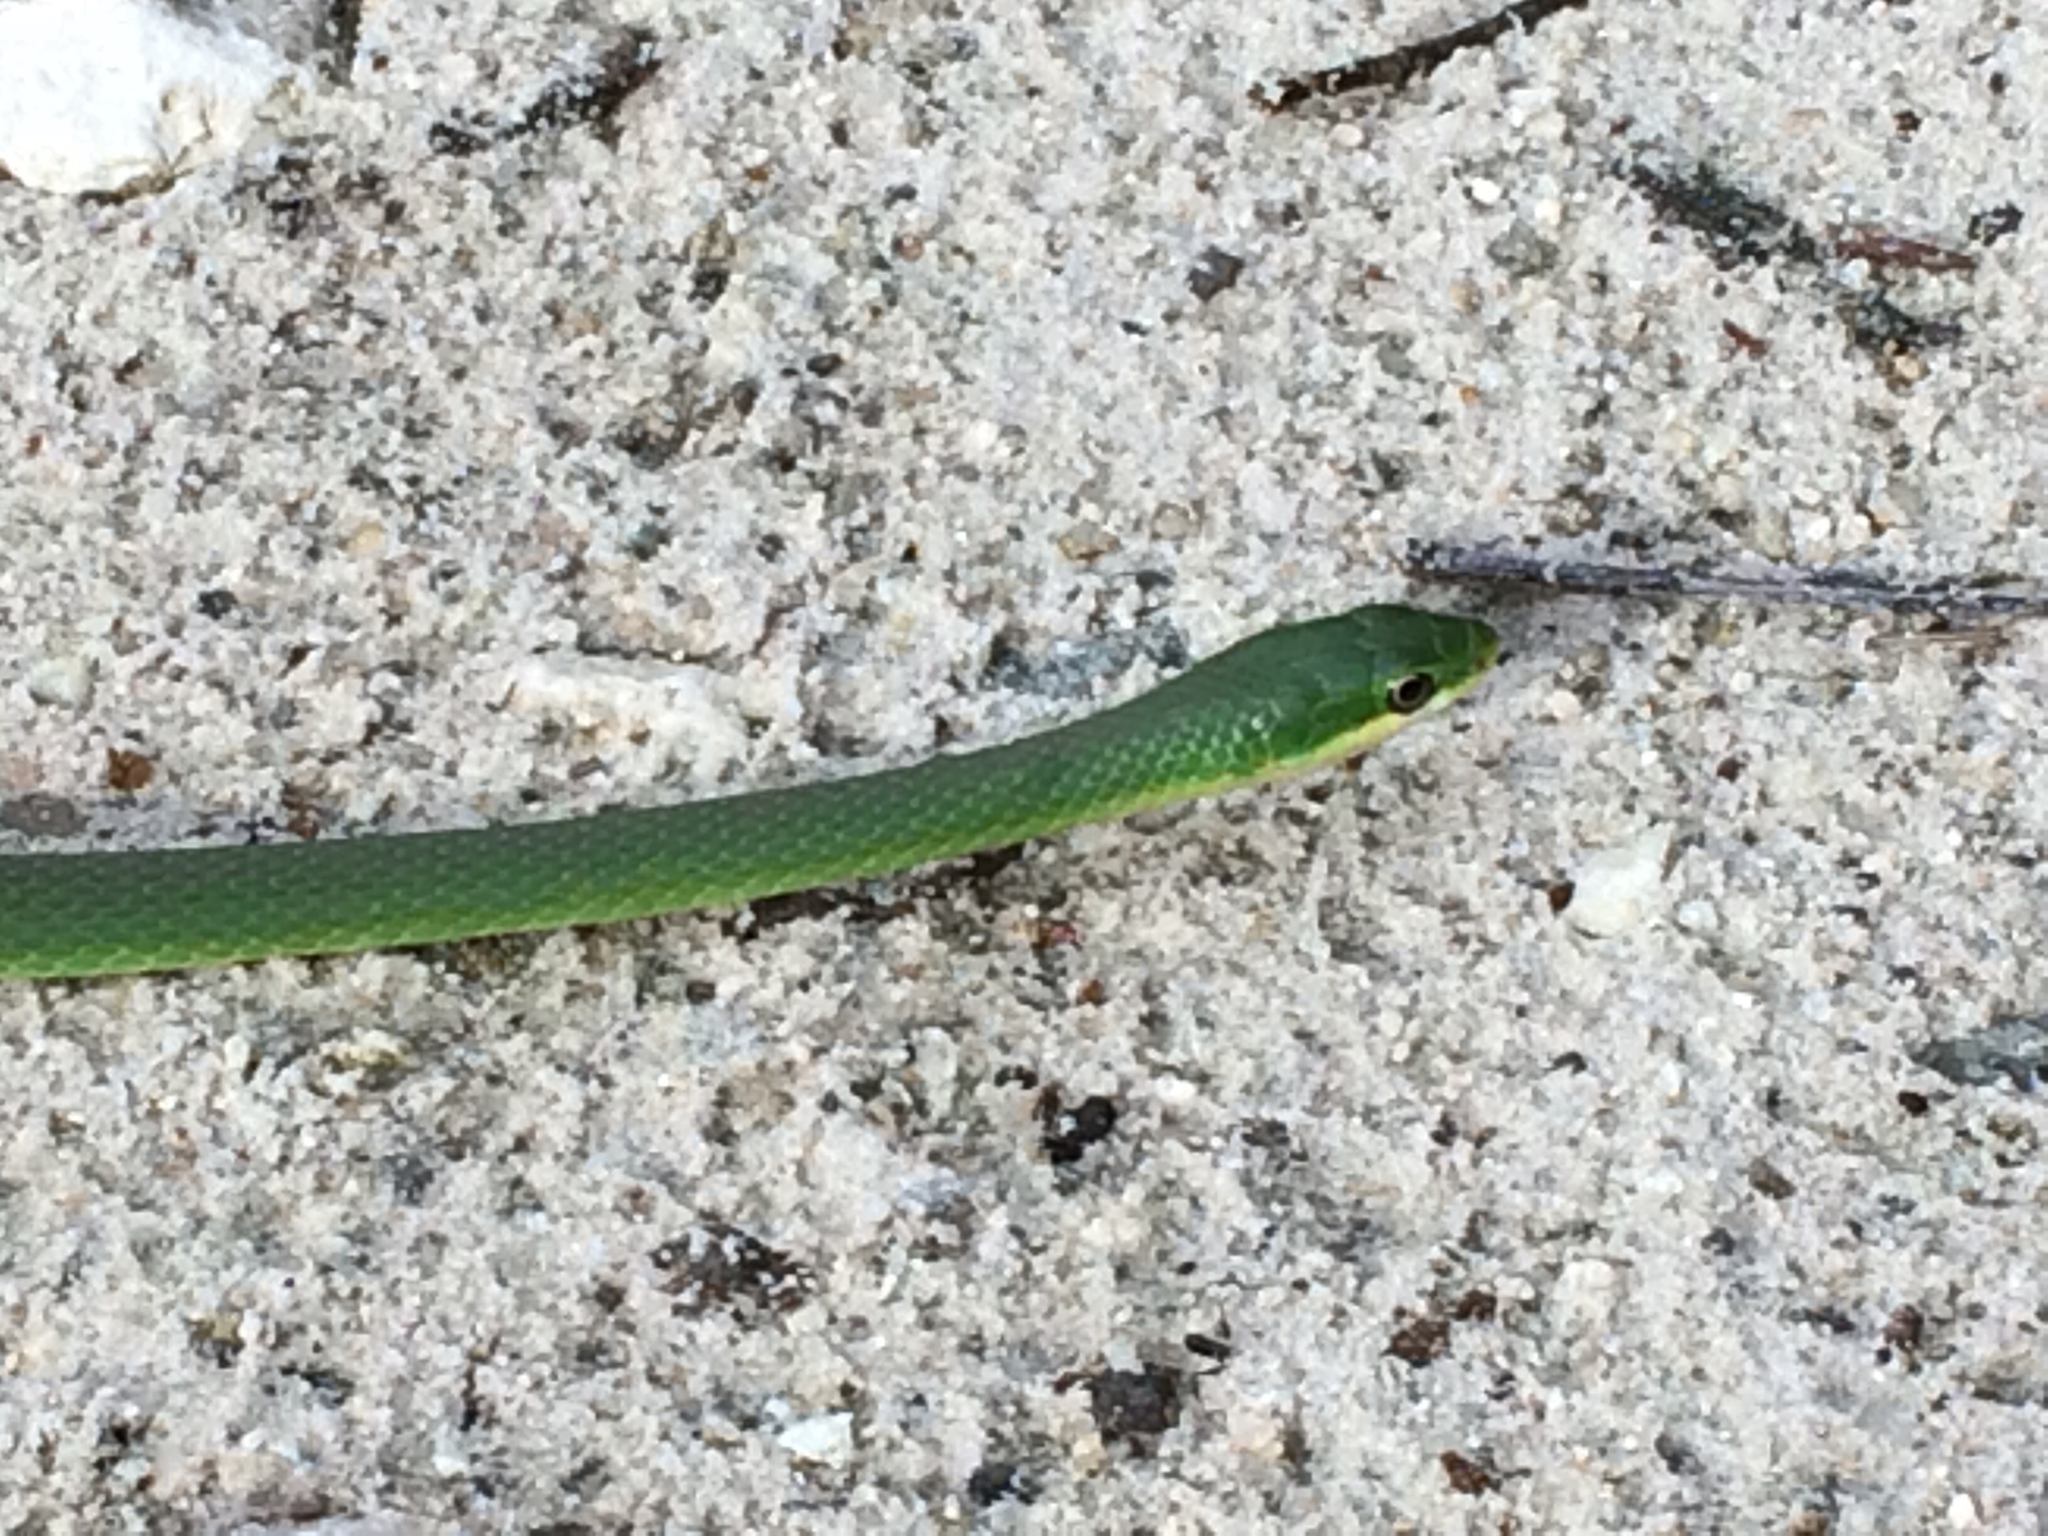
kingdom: Animalia
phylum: Chordata
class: Squamata
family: Colubridae
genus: Opheodrys
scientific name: Opheodrys aestivus
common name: Rough greensnake
